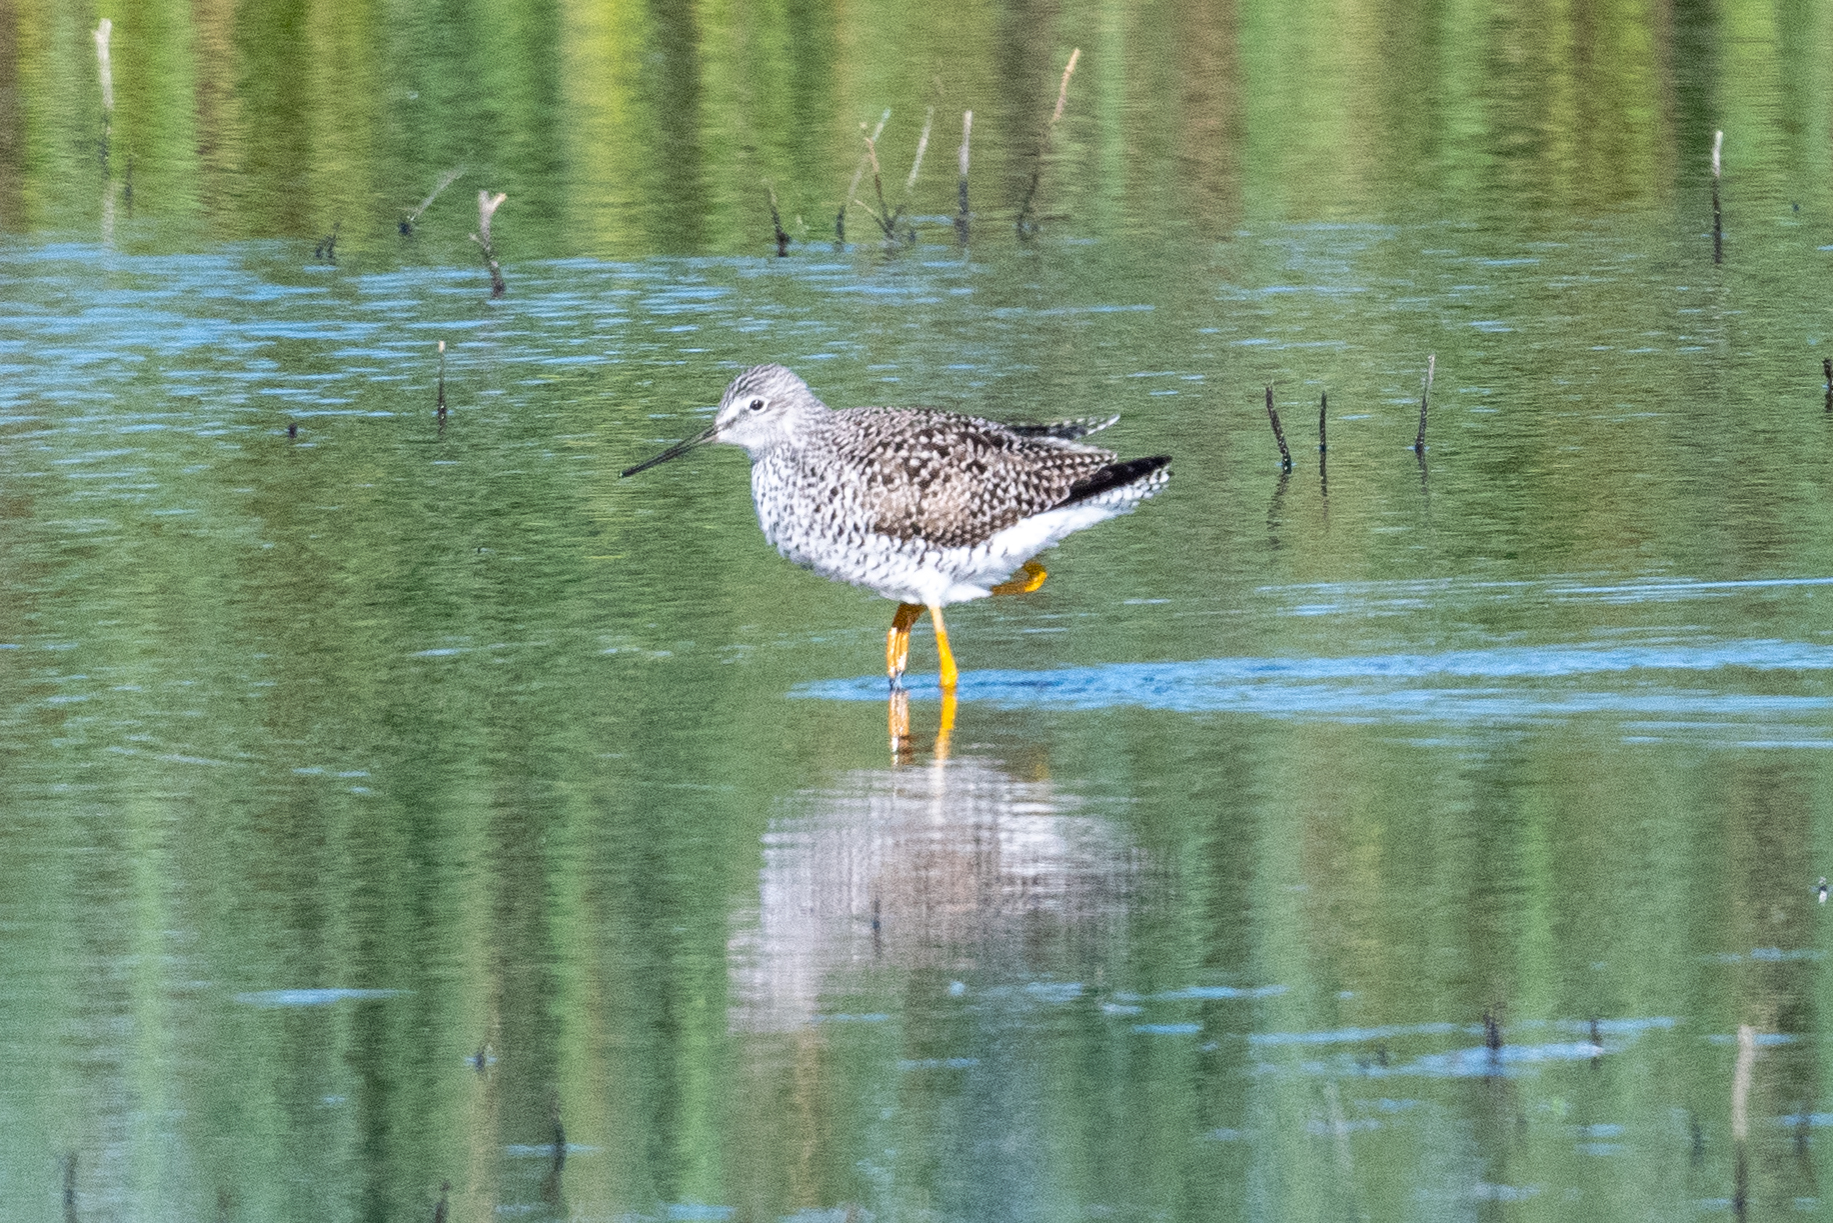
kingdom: Animalia
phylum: Chordata
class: Aves
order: Charadriiformes
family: Scolopacidae
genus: Tringa
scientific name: Tringa melanoleuca
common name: Greater yellowlegs
